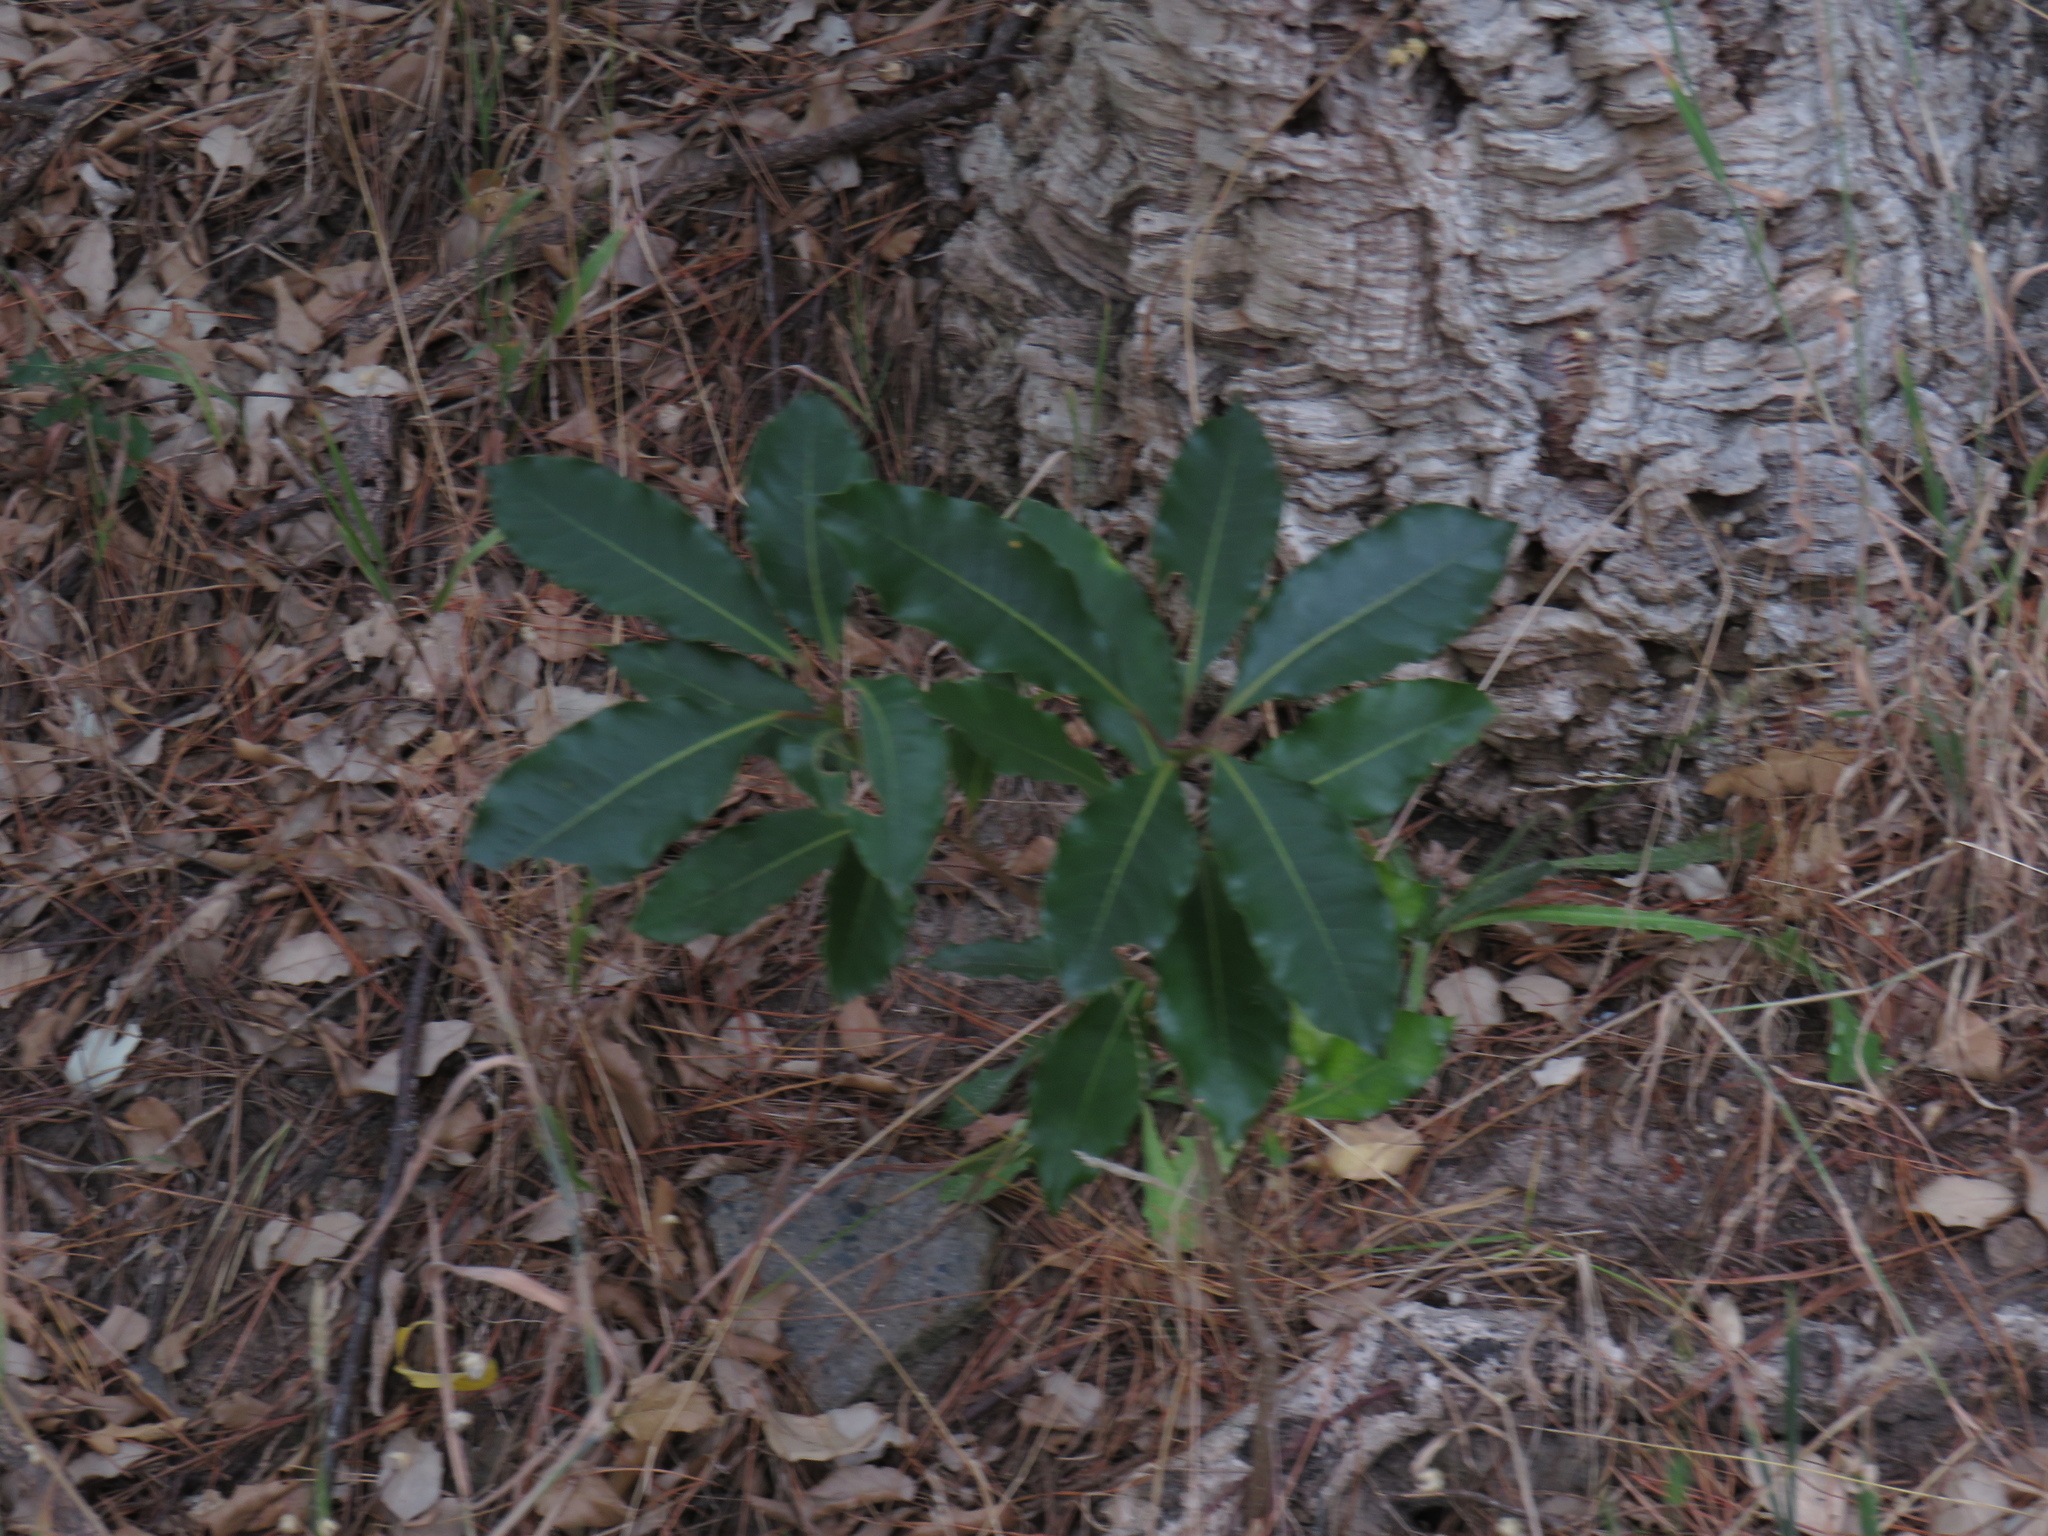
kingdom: Plantae
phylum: Tracheophyta
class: Magnoliopsida
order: Apiales
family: Pittosporaceae
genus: Pittosporum
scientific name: Pittosporum undulatum
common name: Australian cheesewood
